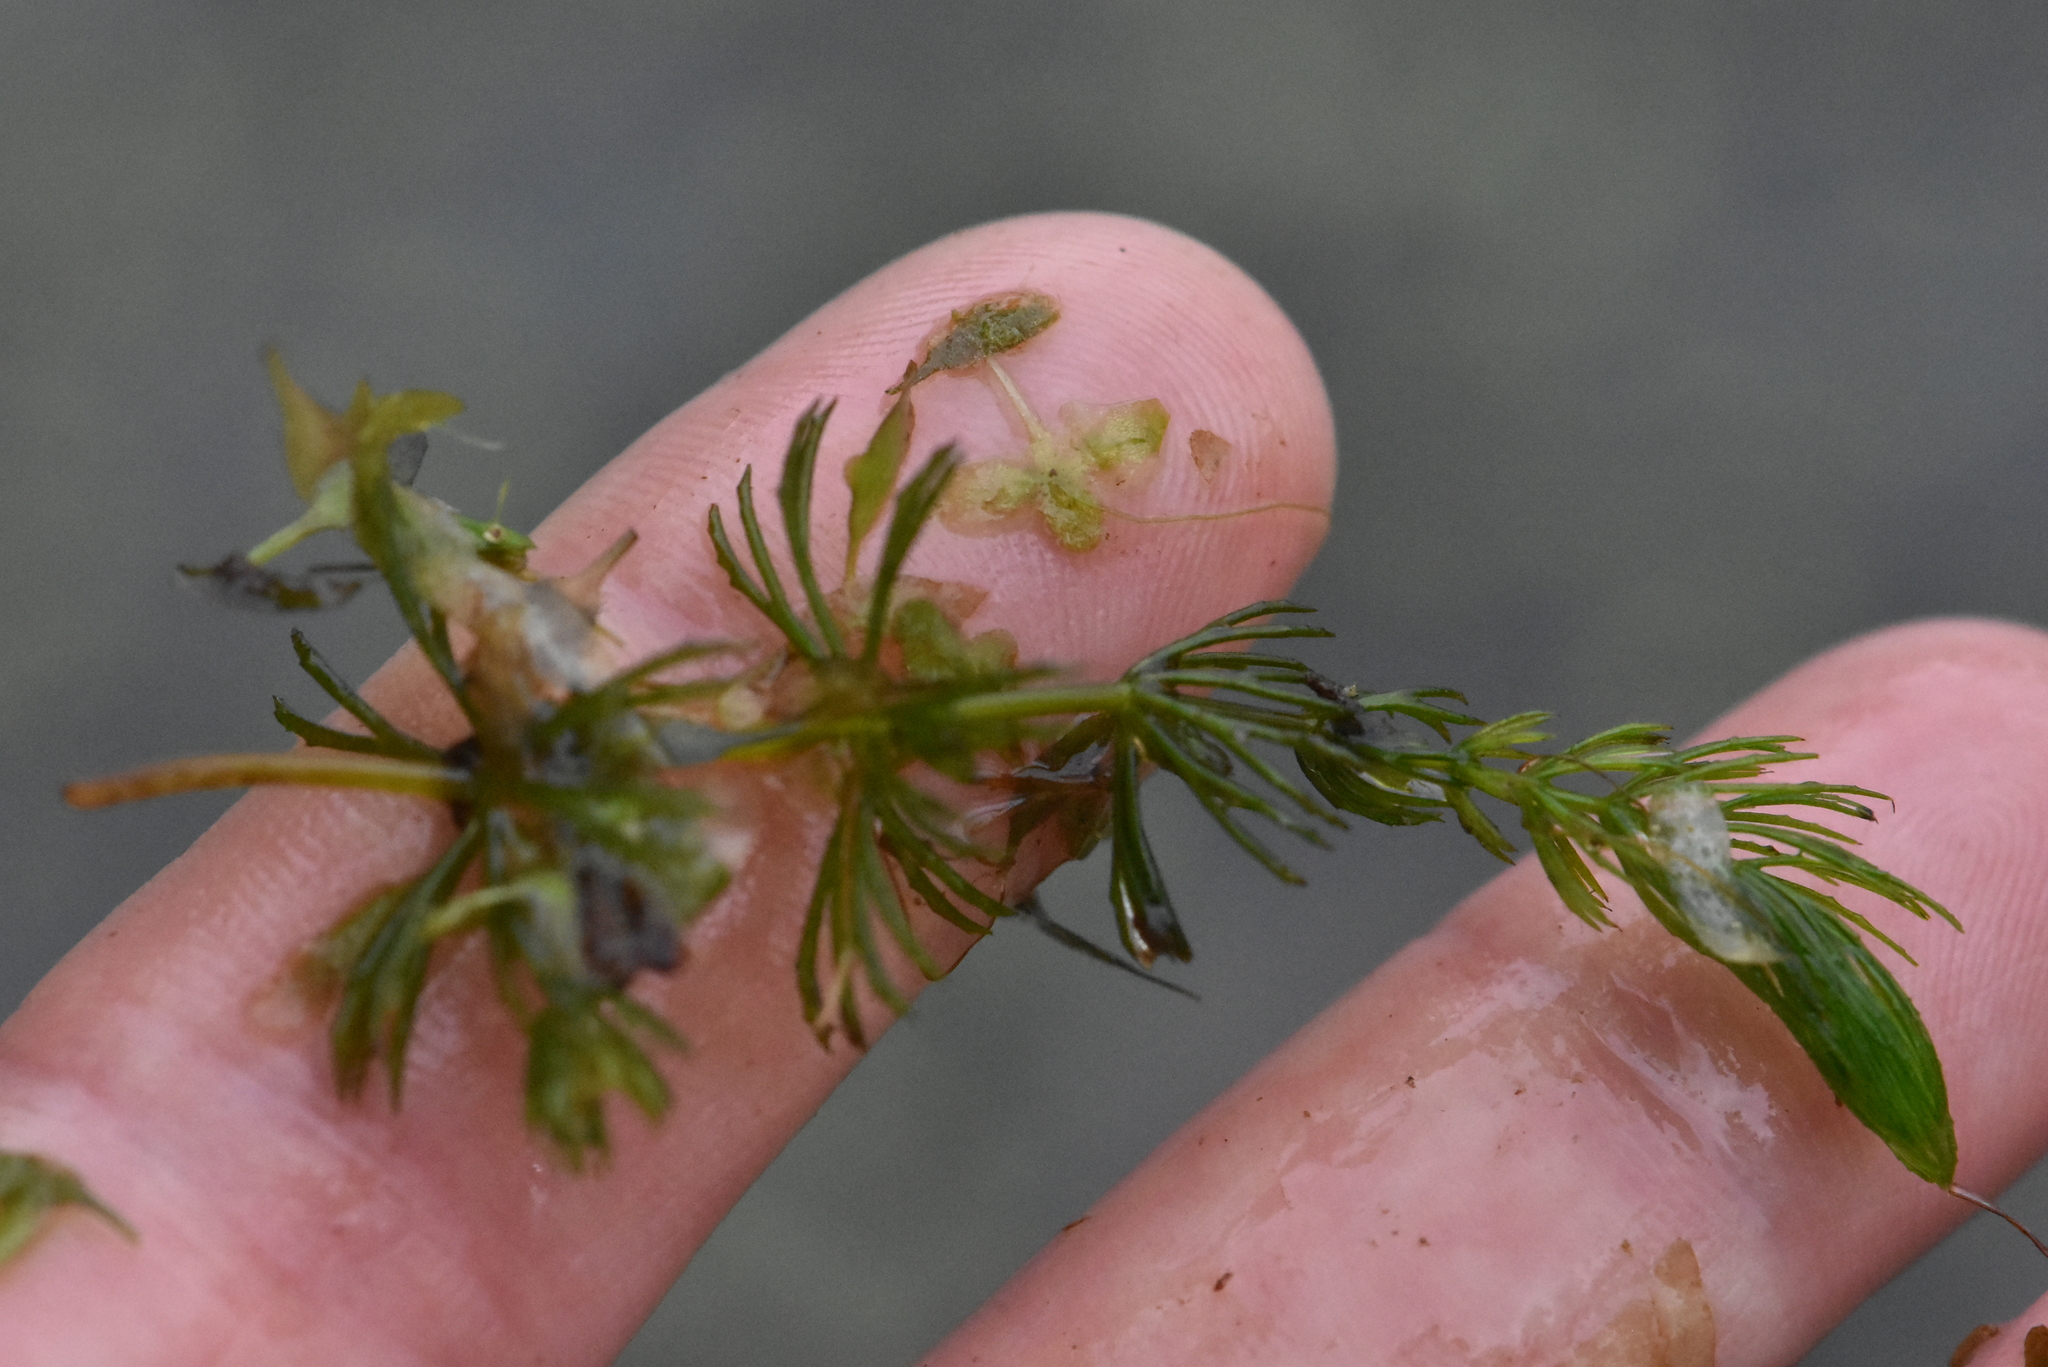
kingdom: Plantae
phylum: Tracheophyta
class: Magnoliopsida
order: Ceratophyllales
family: Ceratophyllaceae
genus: Ceratophyllum
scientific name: Ceratophyllum demersum
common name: Rigid hornwort
